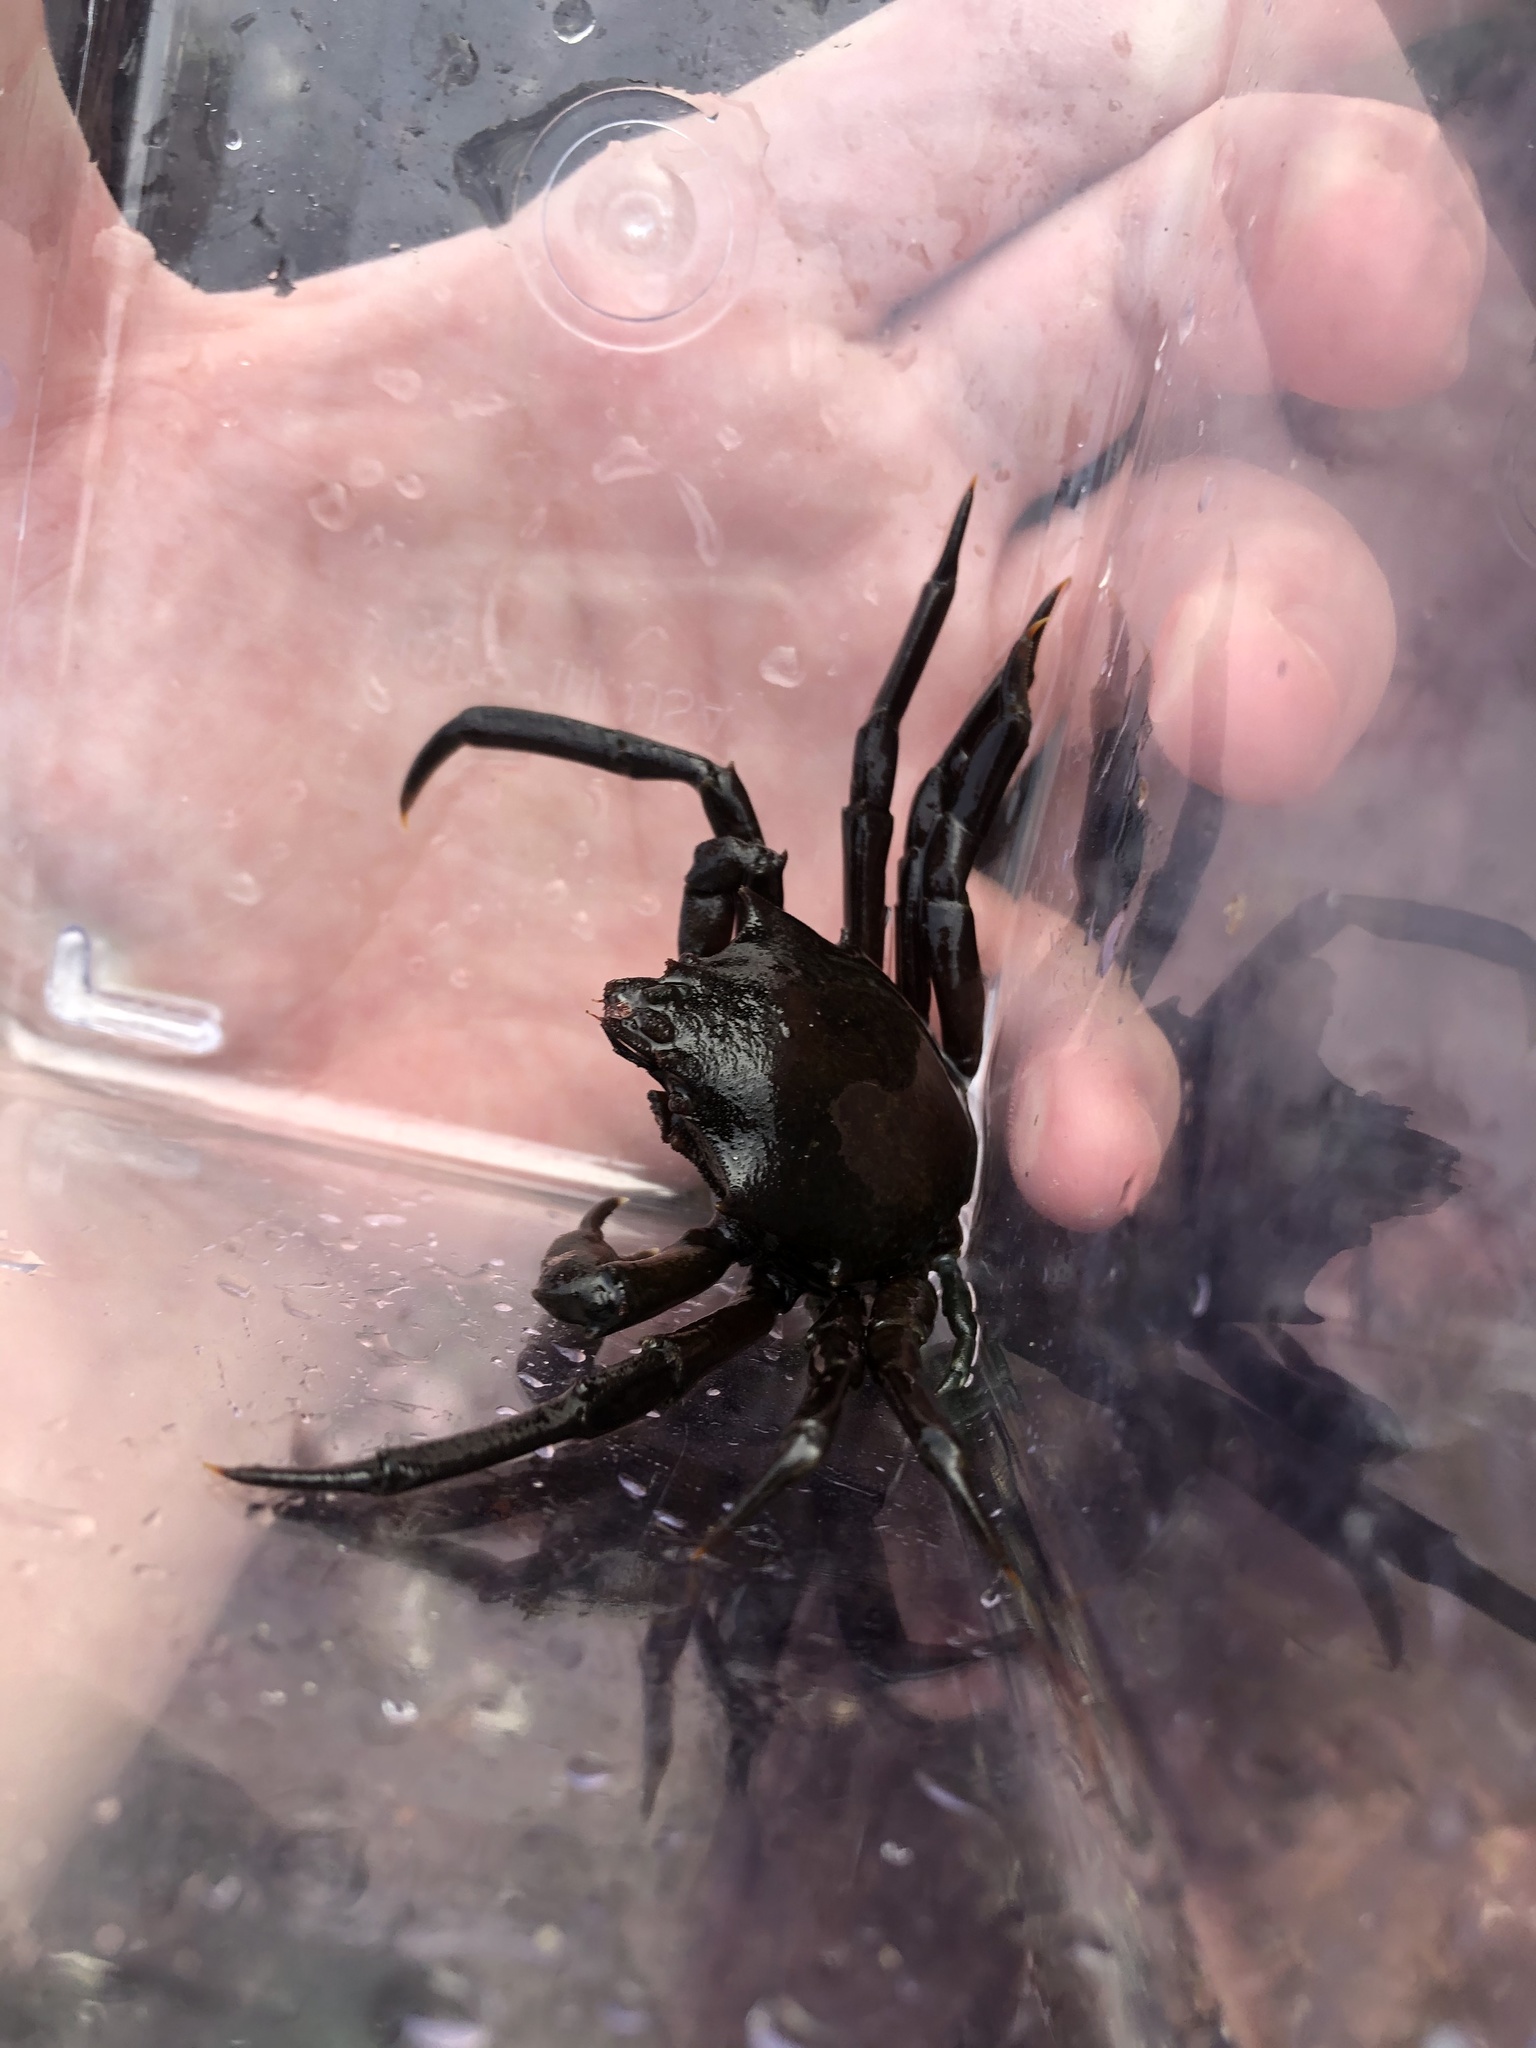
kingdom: Animalia
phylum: Arthropoda
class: Malacostraca
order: Decapoda
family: Epialtidae
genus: Pugettia
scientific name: Pugettia producta
